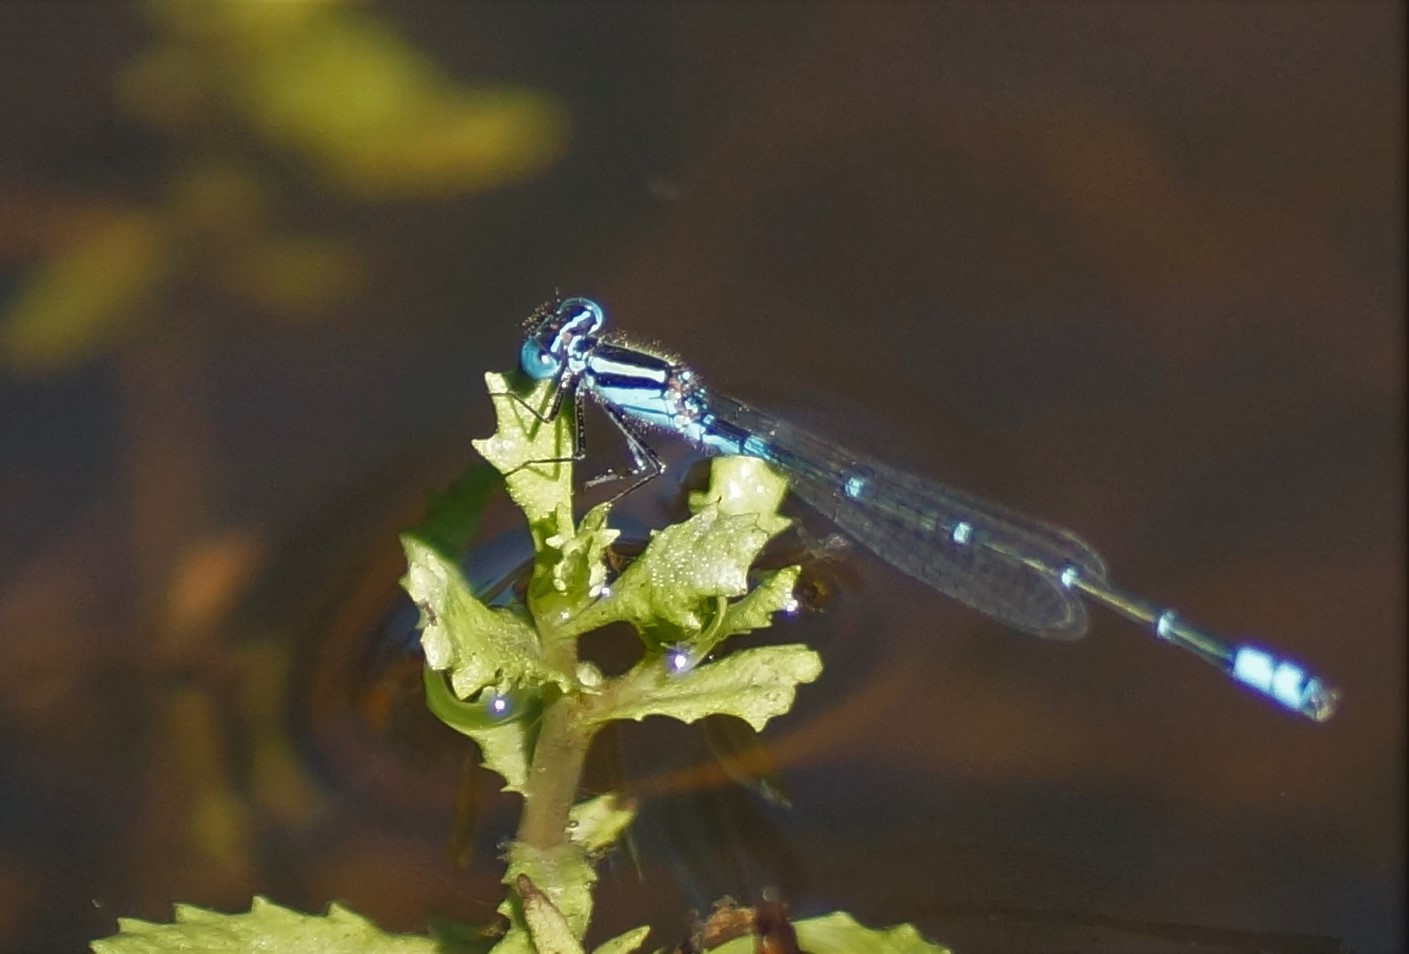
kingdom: Animalia
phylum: Arthropoda
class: Insecta
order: Odonata
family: Coenagrionidae
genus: Austroagrion
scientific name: Austroagrion watsoni
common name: Eastern billabongfly
